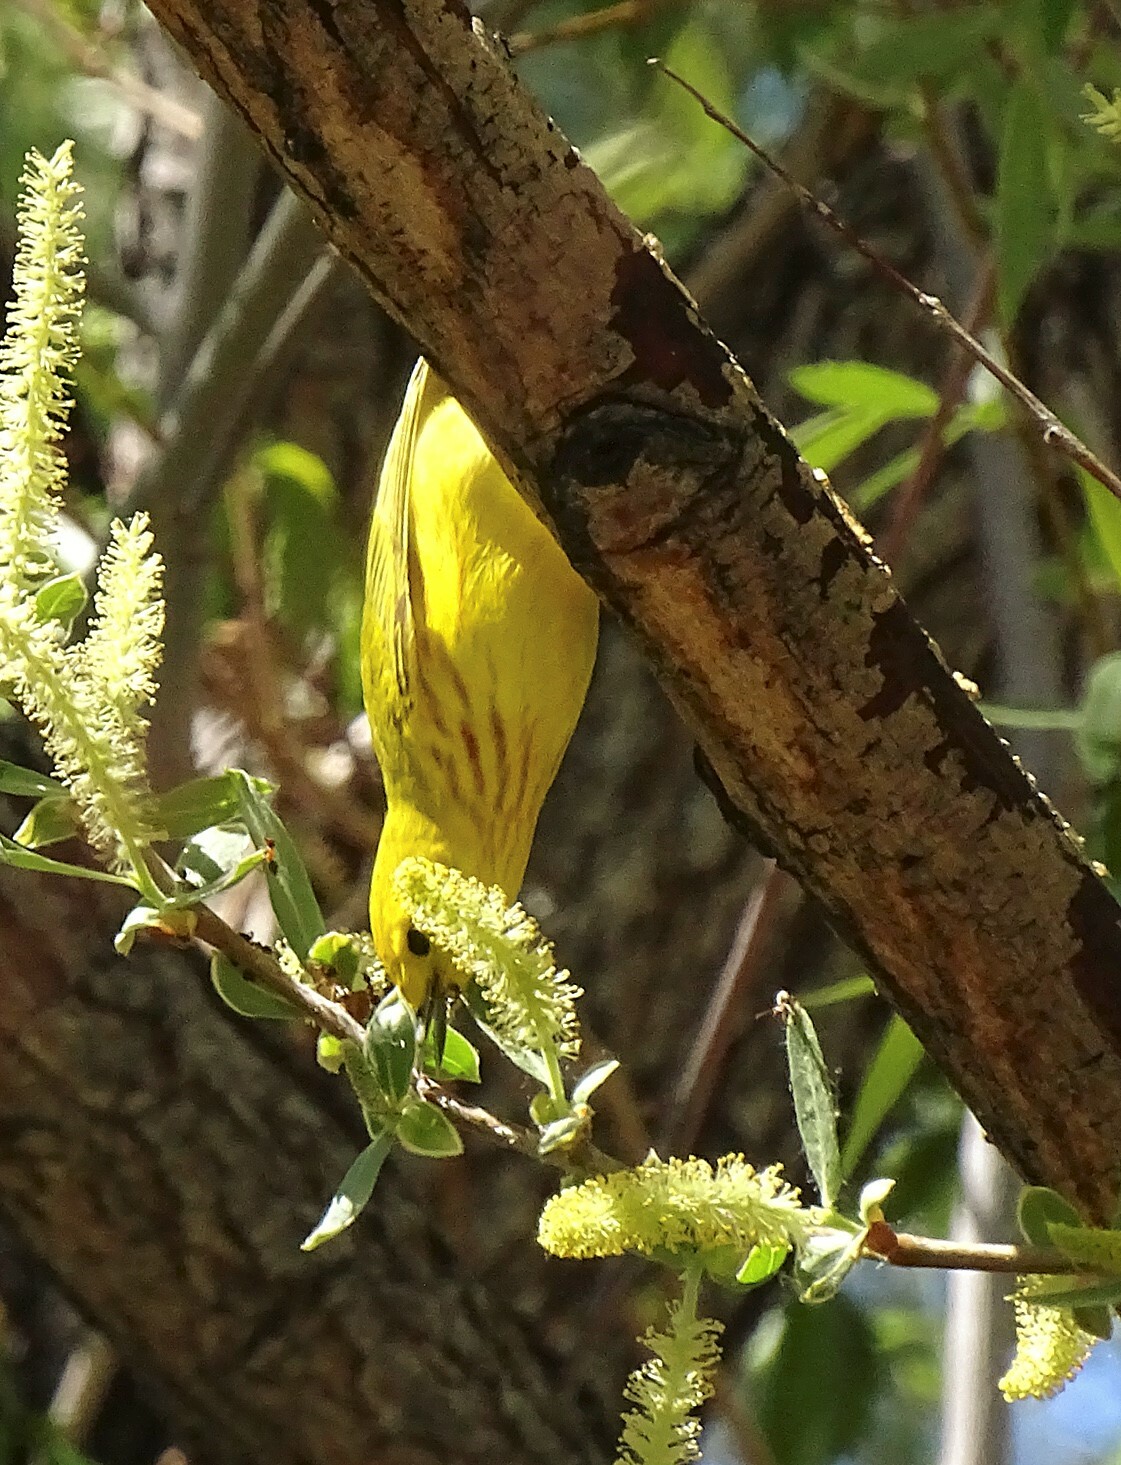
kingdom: Animalia
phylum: Chordata
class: Aves
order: Passeriformes
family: Parulidae
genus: Setophaga
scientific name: Setophaga petechia
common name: Yellow warbler
